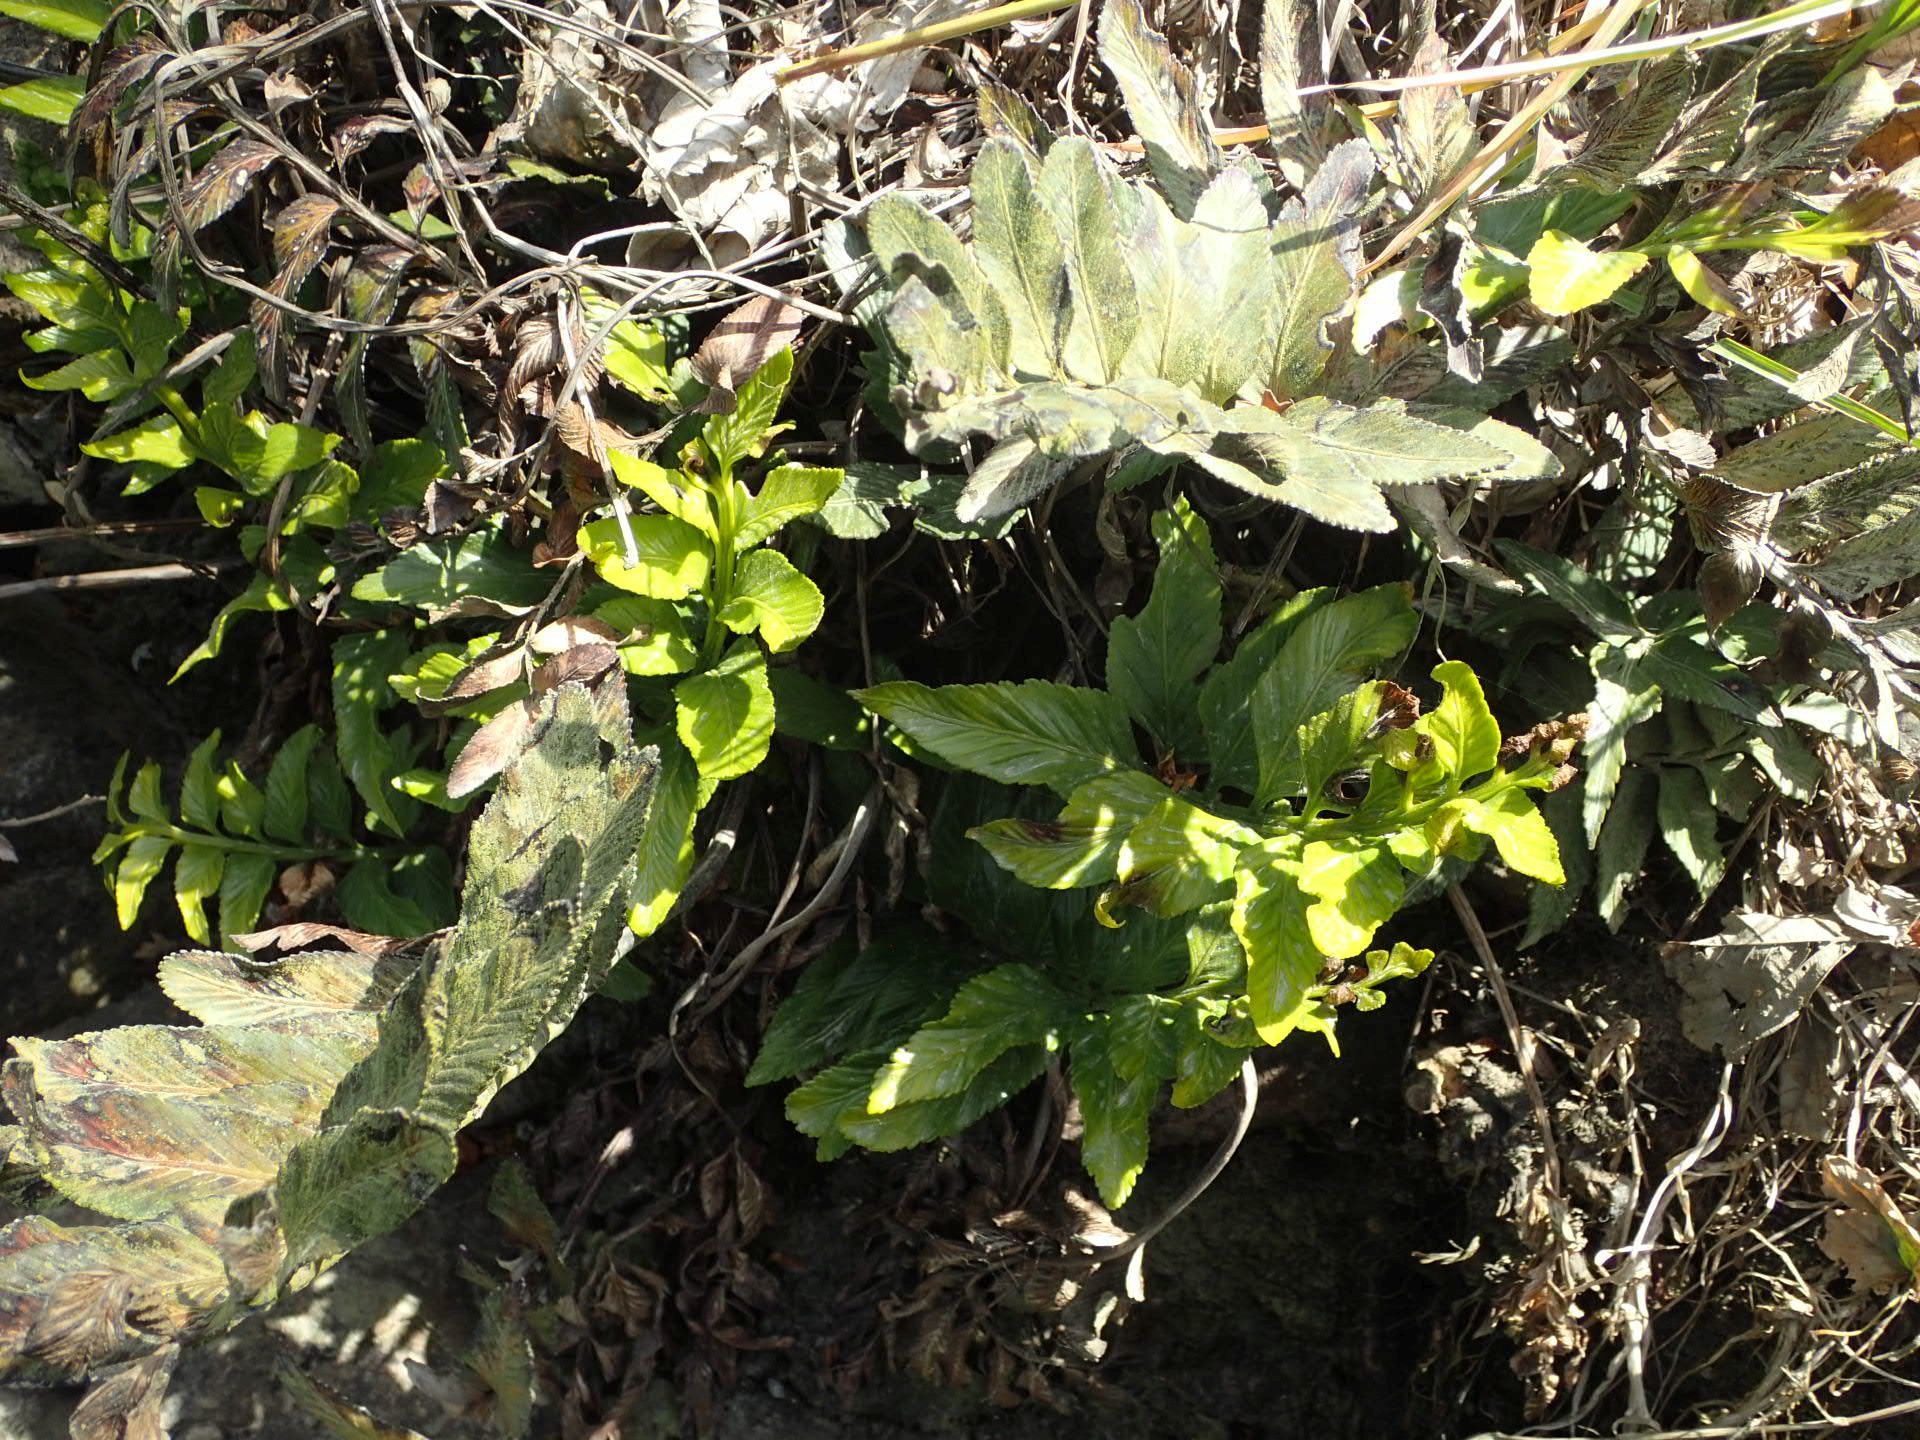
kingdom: Plantae
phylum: Tracheophyta
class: Polypodiopsida
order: Polypodiales
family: Aspleniaceae
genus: Asplenium
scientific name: Asplenium obtusatum
